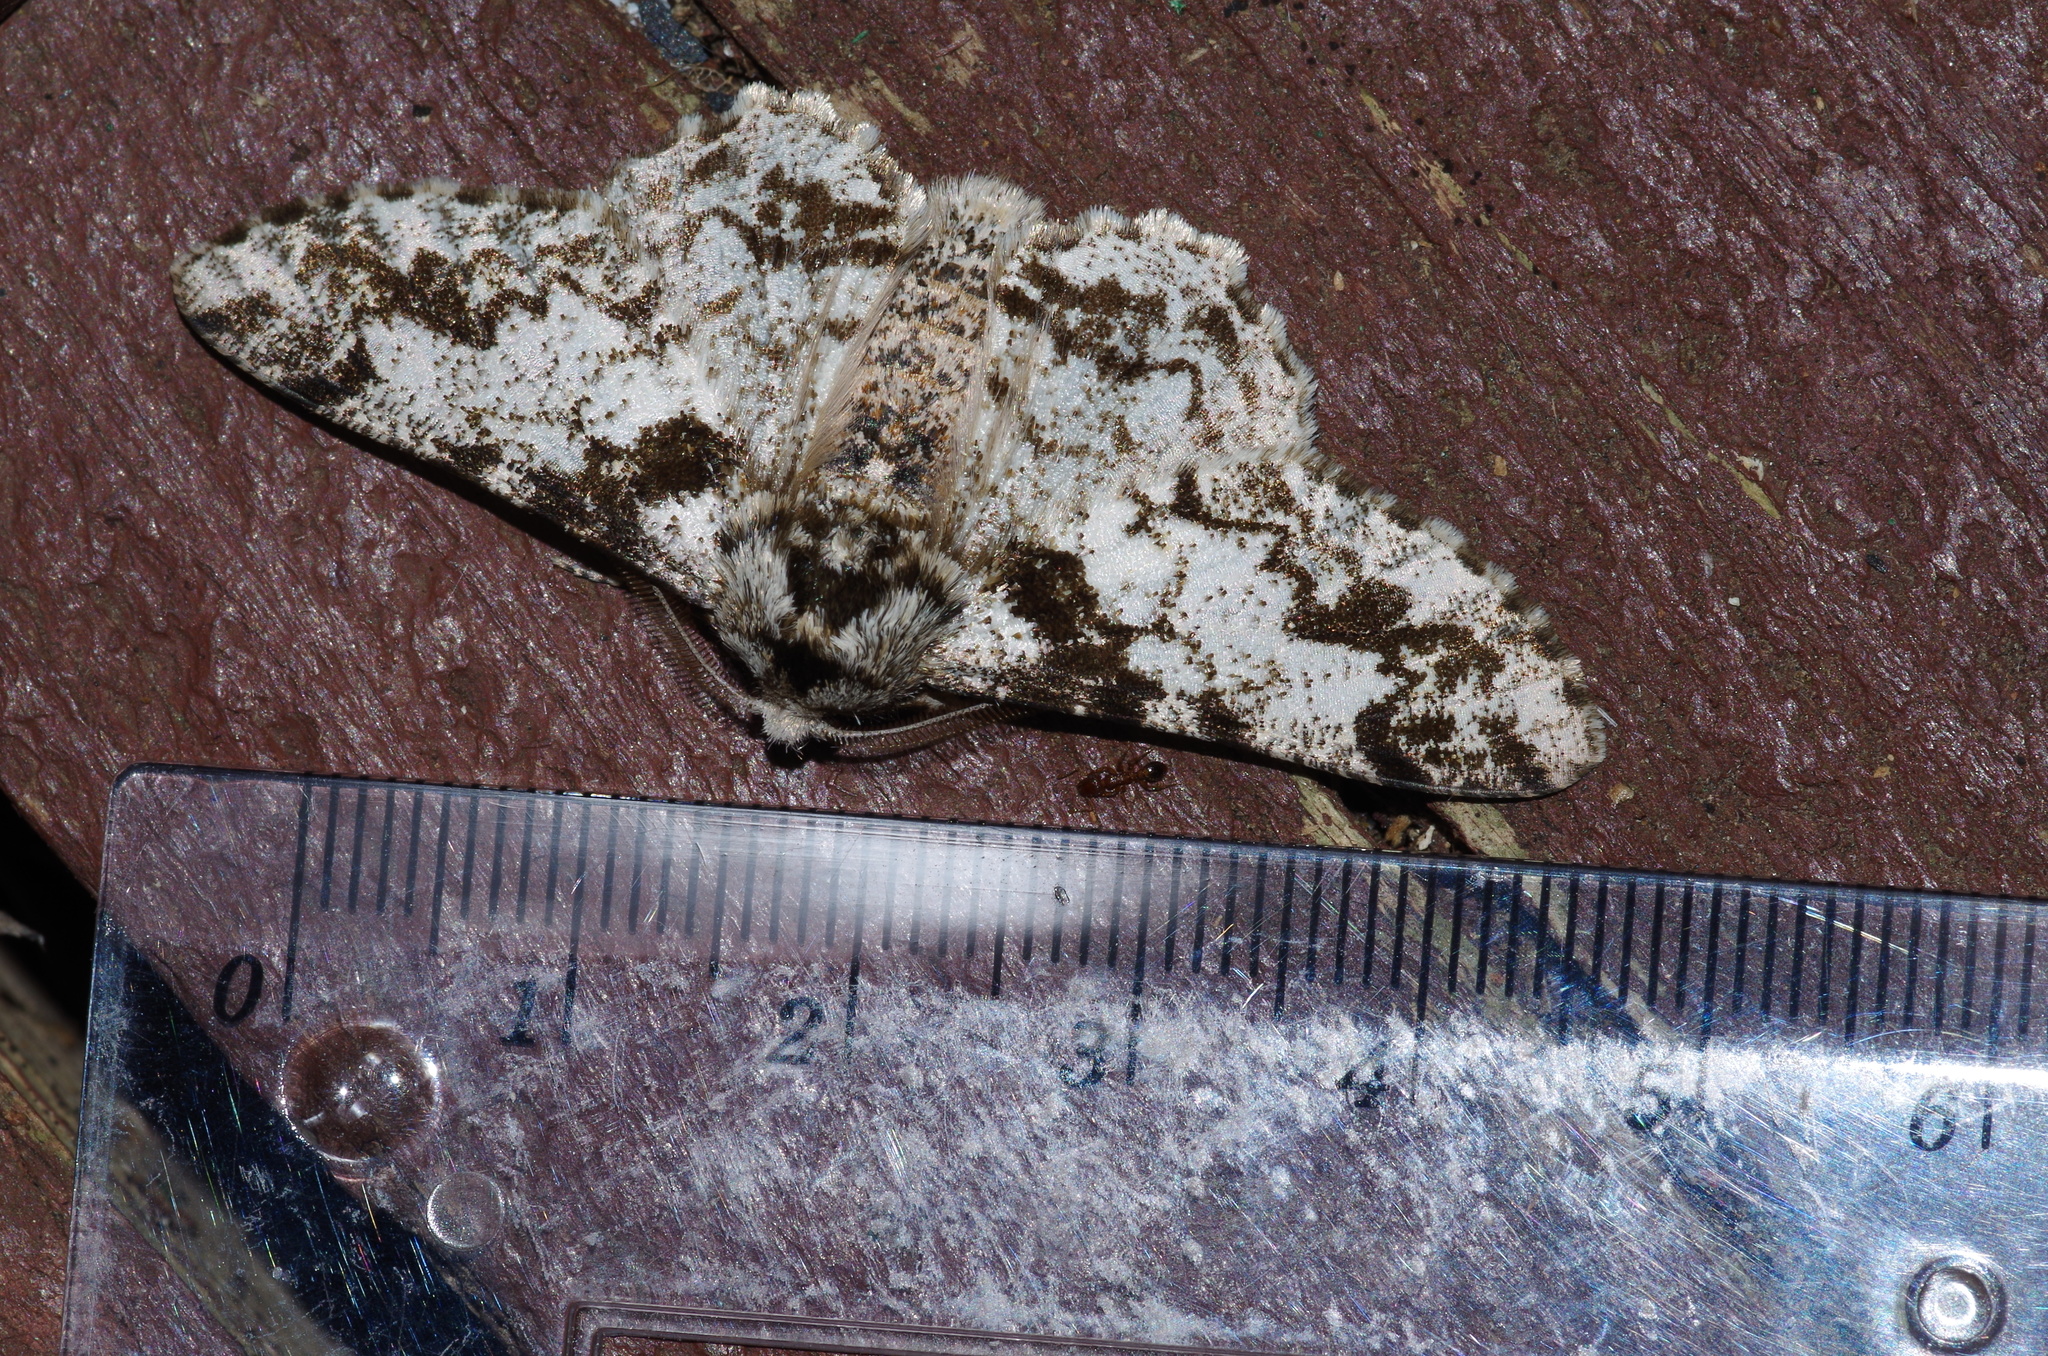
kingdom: Animalia
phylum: Arthropoda
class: Insecta
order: Lepidoptera
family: Geometridae
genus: Biston
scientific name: Biston marginata
